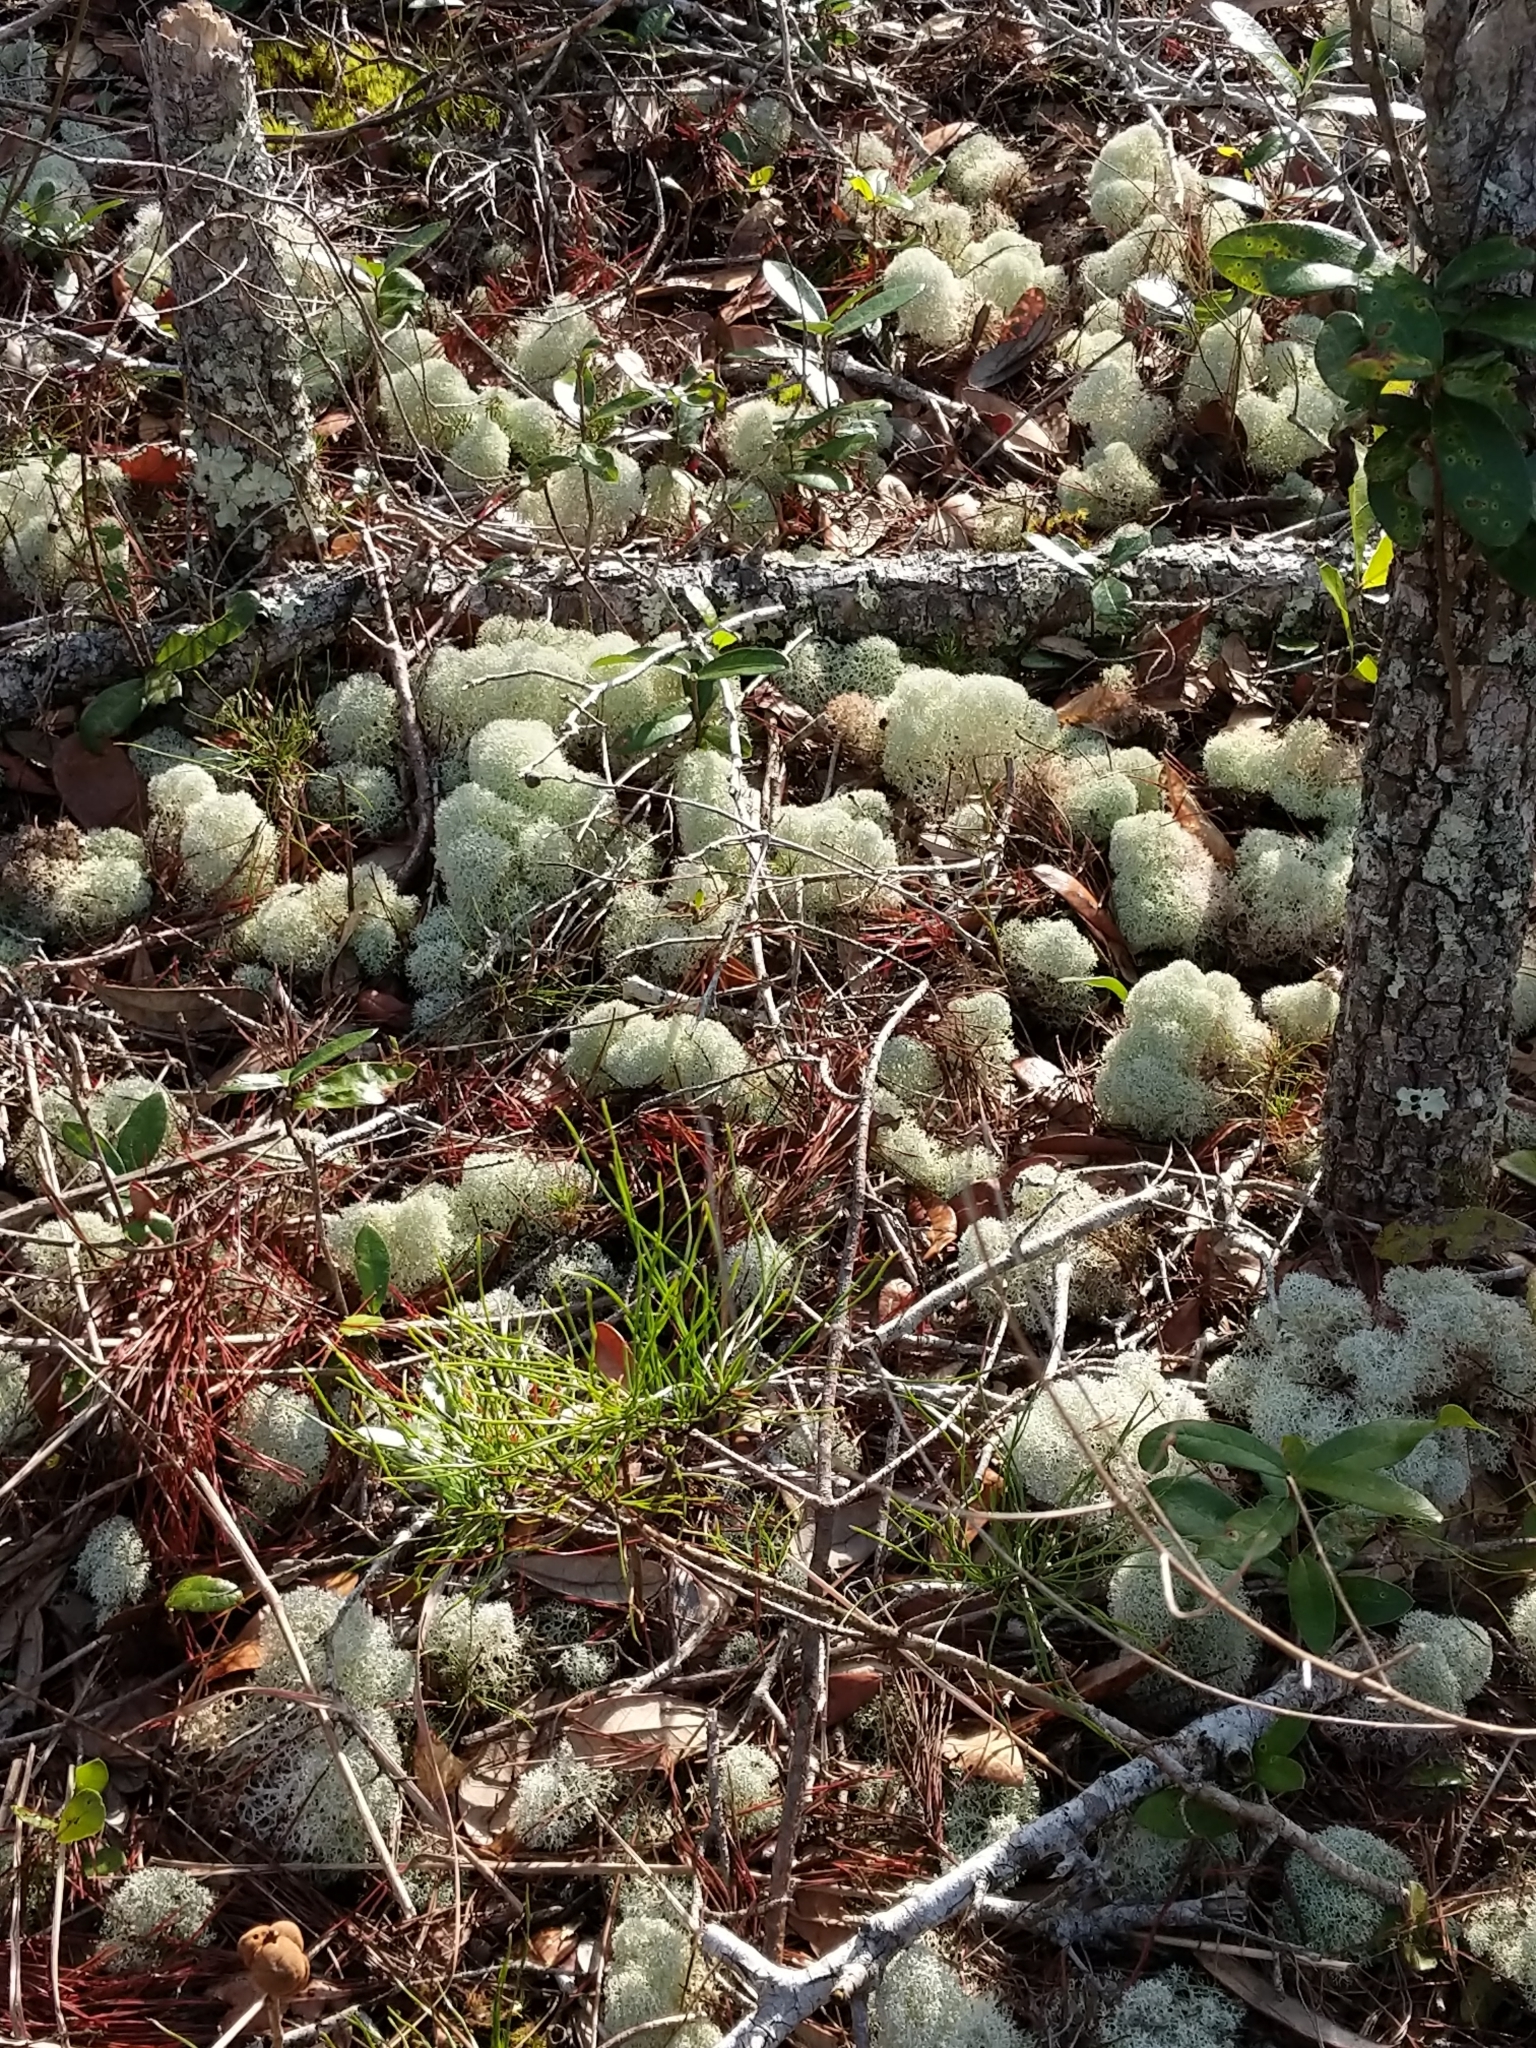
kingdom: Fungi
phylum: Ascomycota
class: Lecanoromycetes
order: Lecanorales
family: Cladoniaceae
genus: Cladonia
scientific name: Cladonia evansii
